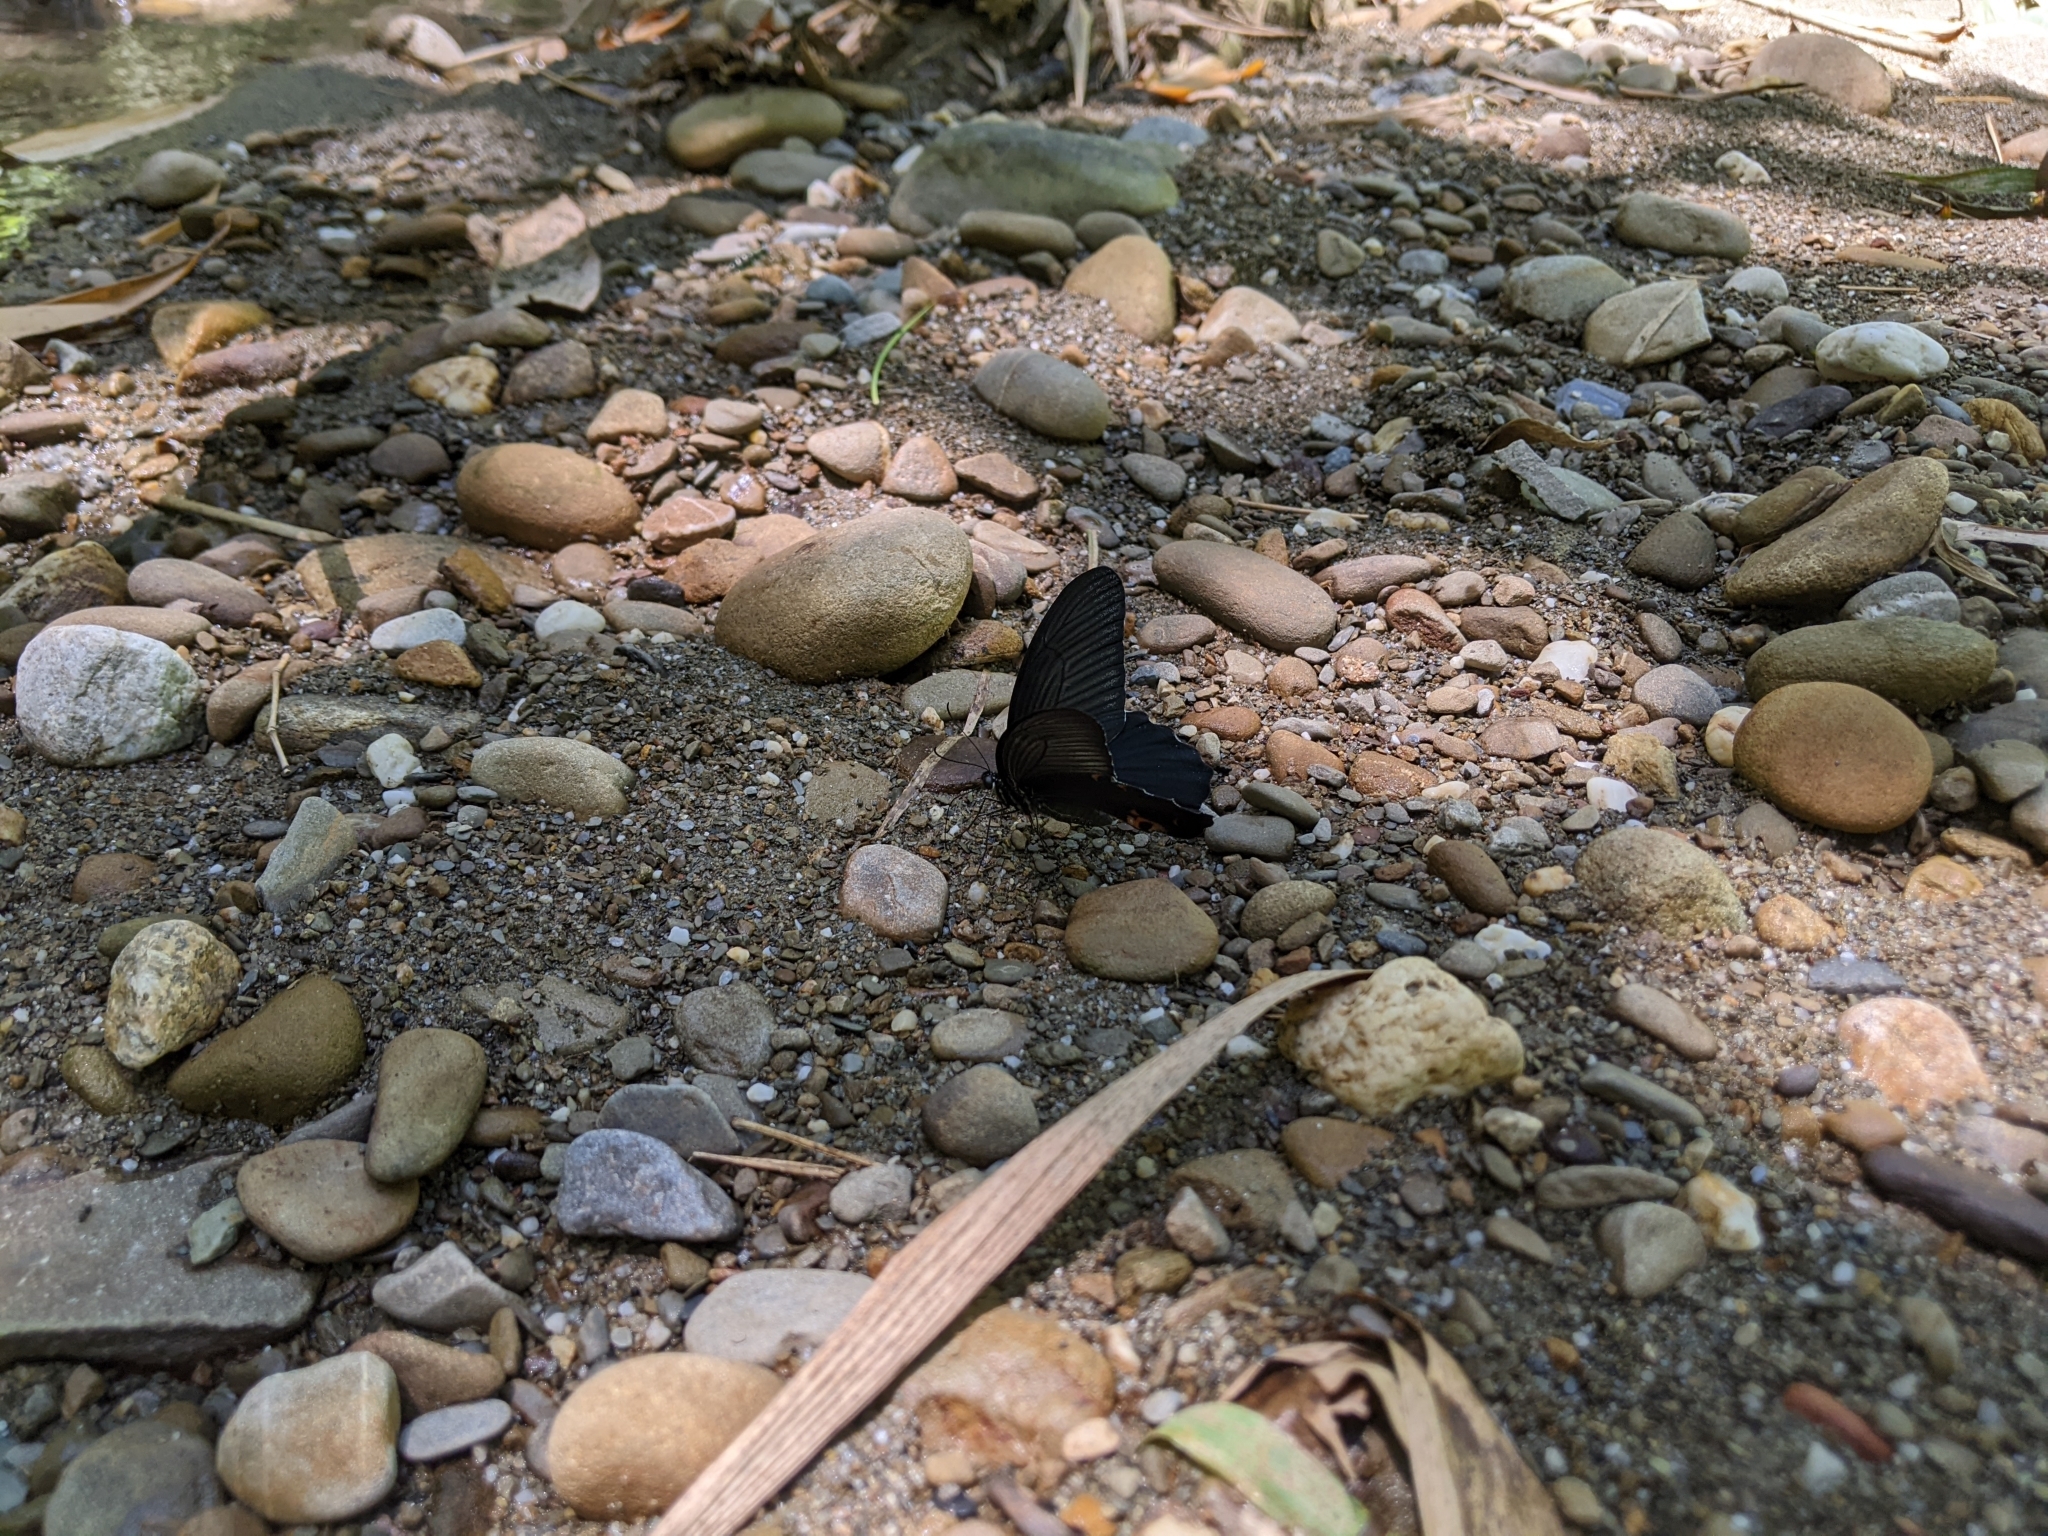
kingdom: Animalia
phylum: Arthropoda
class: Insecta
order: Lepidoptera
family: Papilionidae
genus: Papilio
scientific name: Papilio protenor
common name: Spangle
